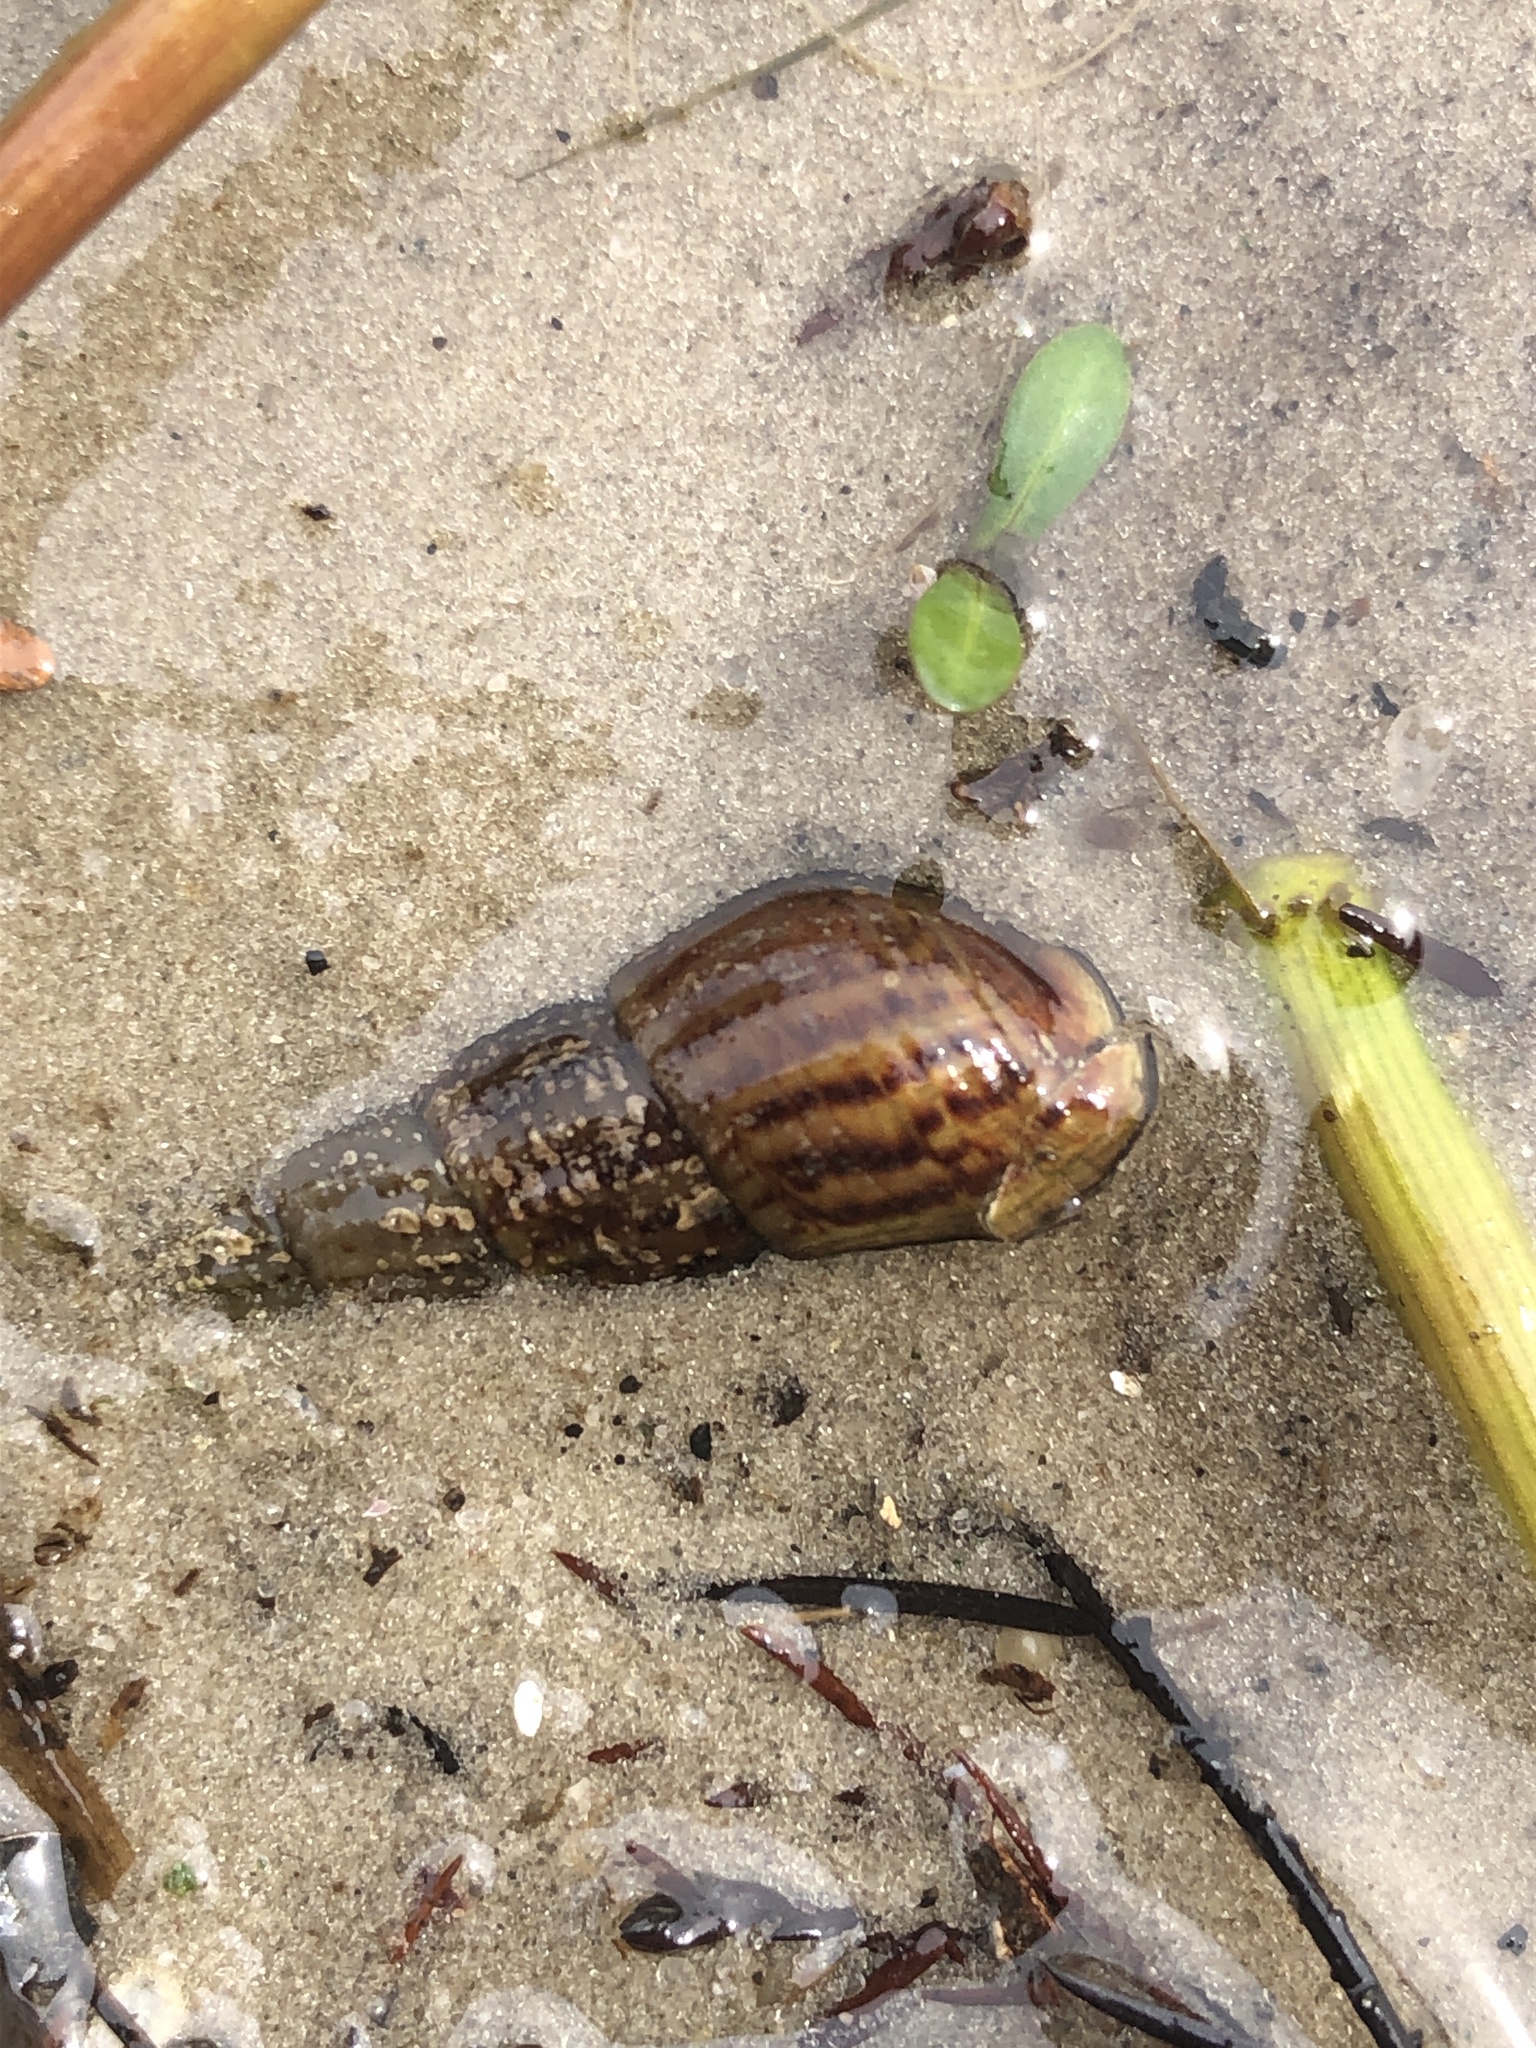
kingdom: Animalia
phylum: Mollusca
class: Gastropoda
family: Thiaridae
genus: Melanoides
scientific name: Melanoides tuberculata
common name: Red-rim melania
